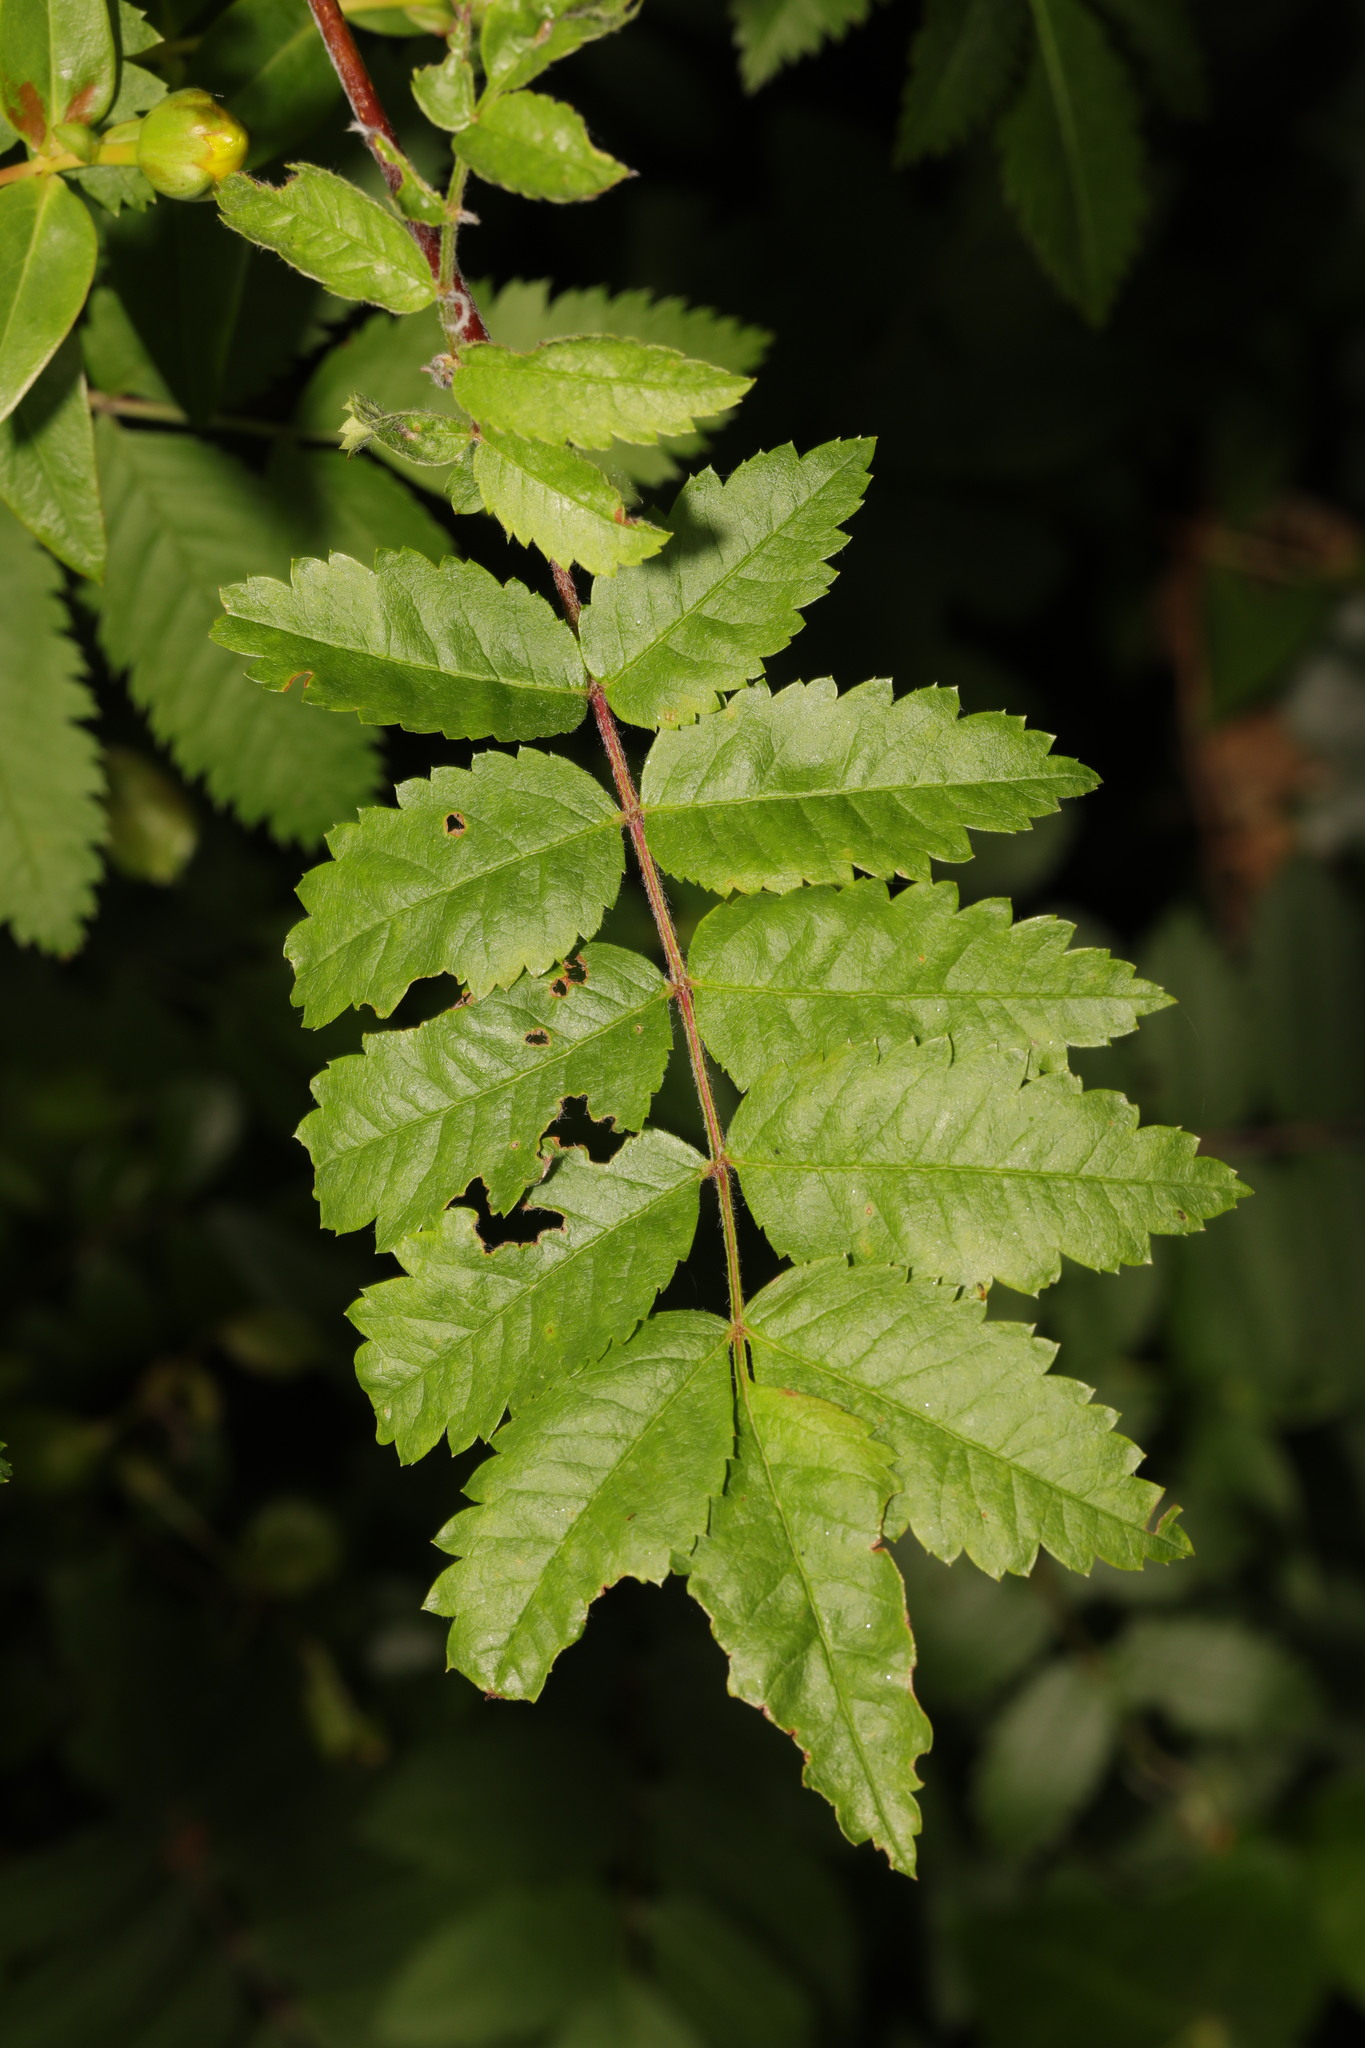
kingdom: Plantae
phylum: Tracheophyta
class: Magnoliopsida
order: Rosales
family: Rosaceae
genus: Sorbus
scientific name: Sorbus aucuparia
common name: Rowan
